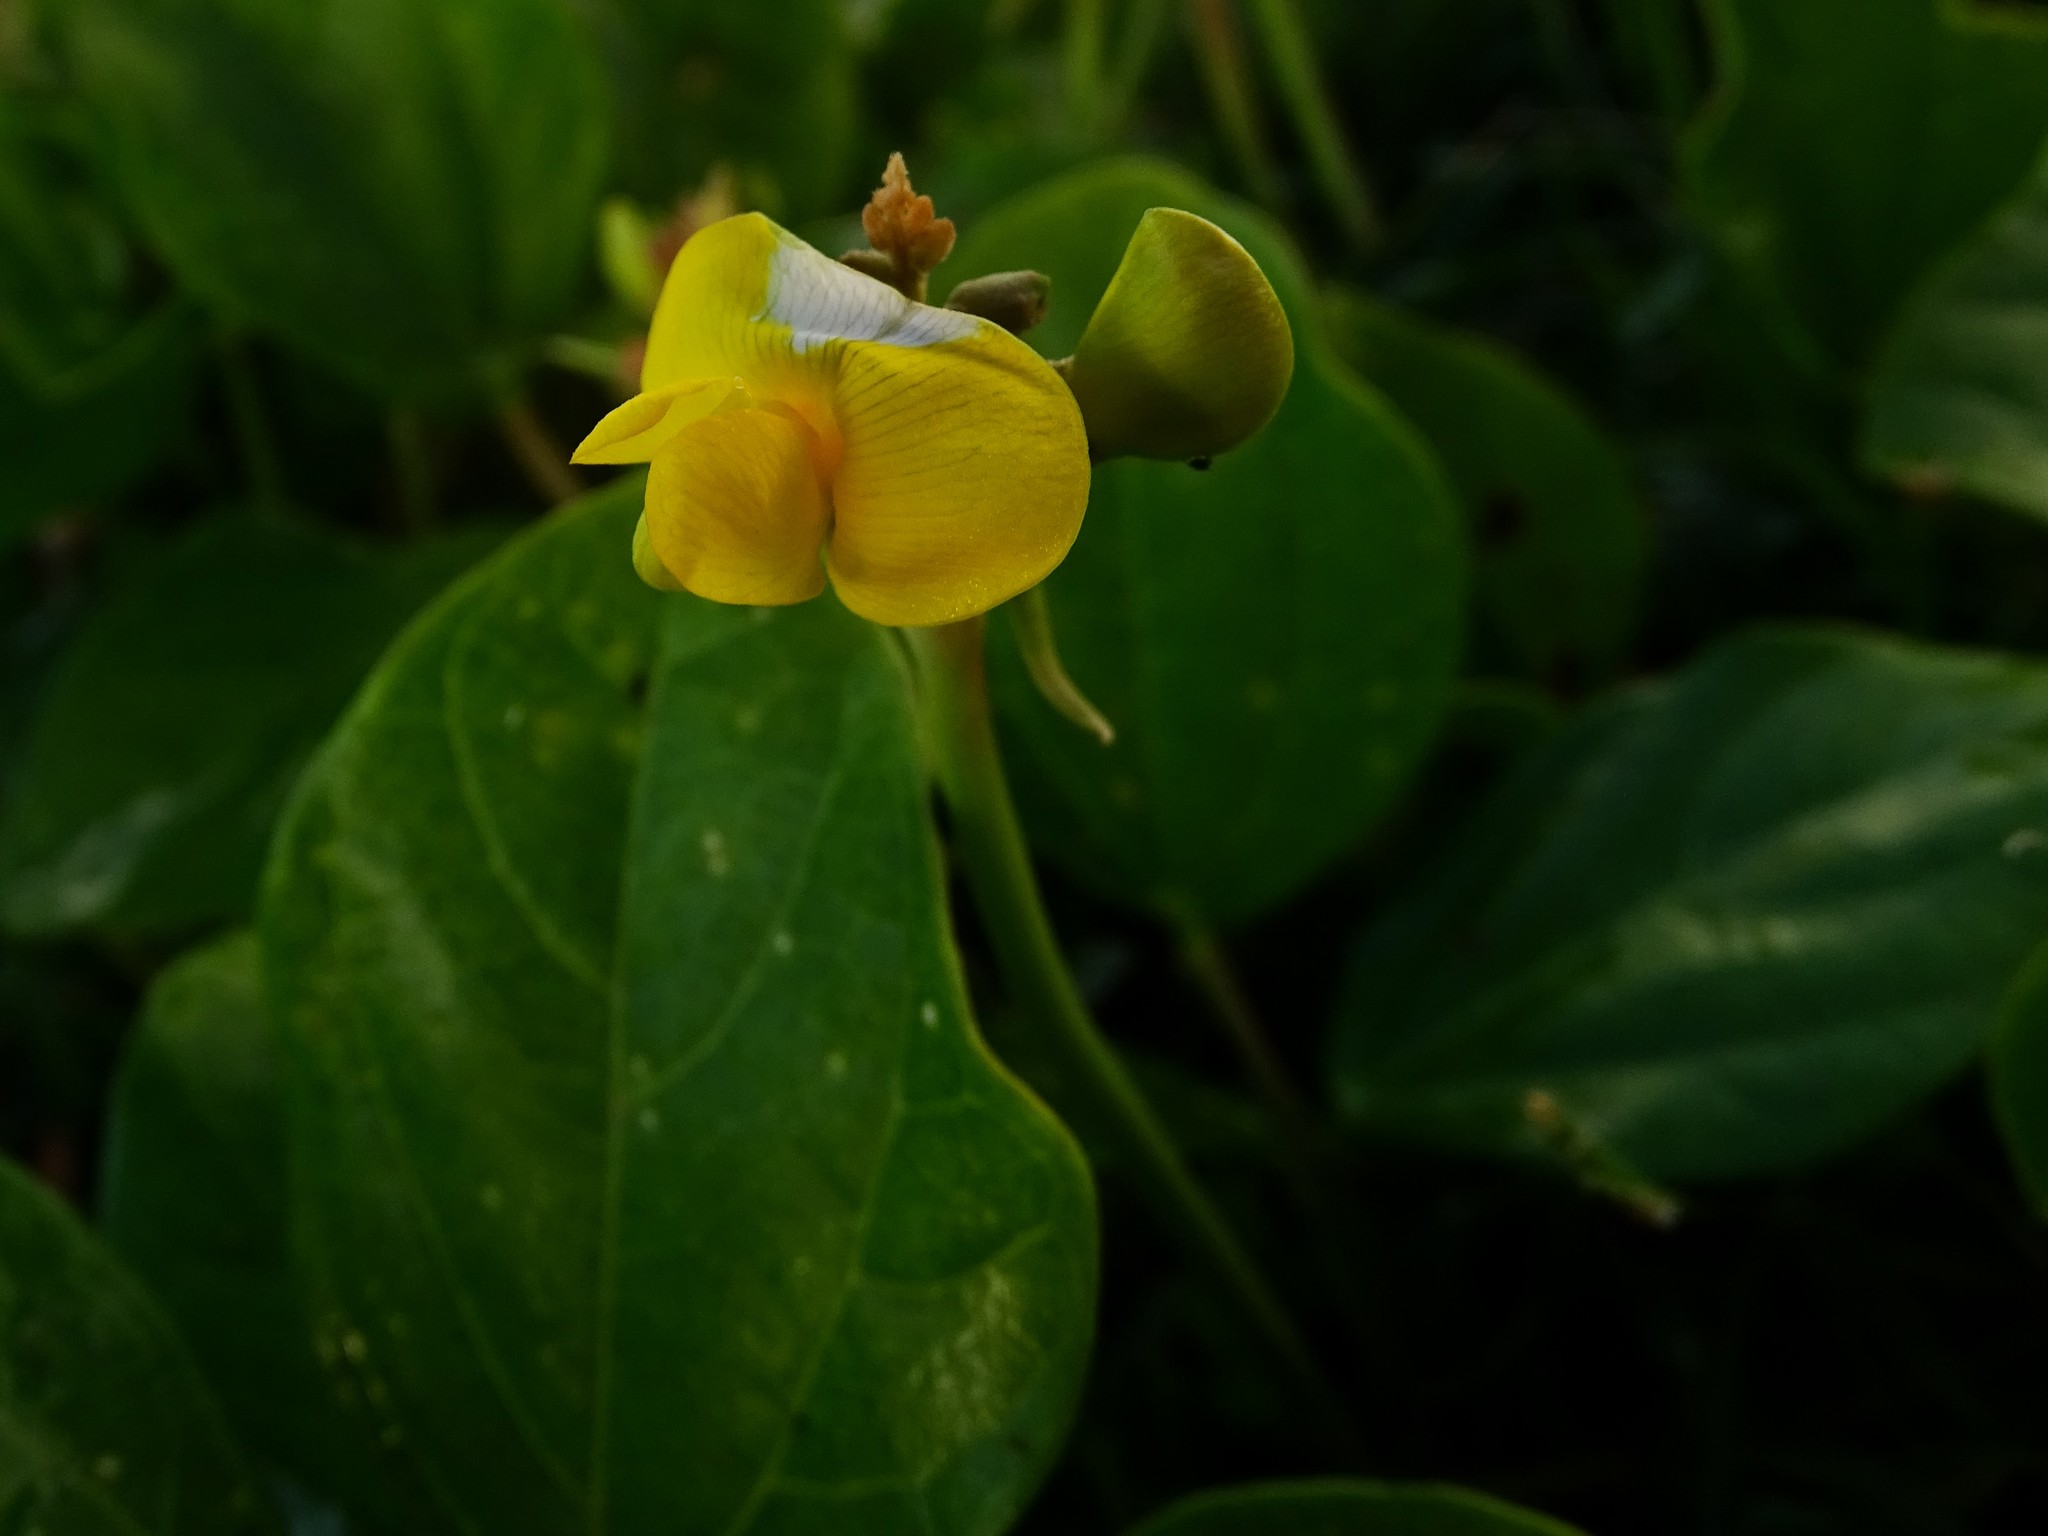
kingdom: Plantae
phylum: Tracheophyta
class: Magnoliopsida
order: Fabales
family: Fabaceae
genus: Vigna
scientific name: Vigna marina
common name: Dune-bean
